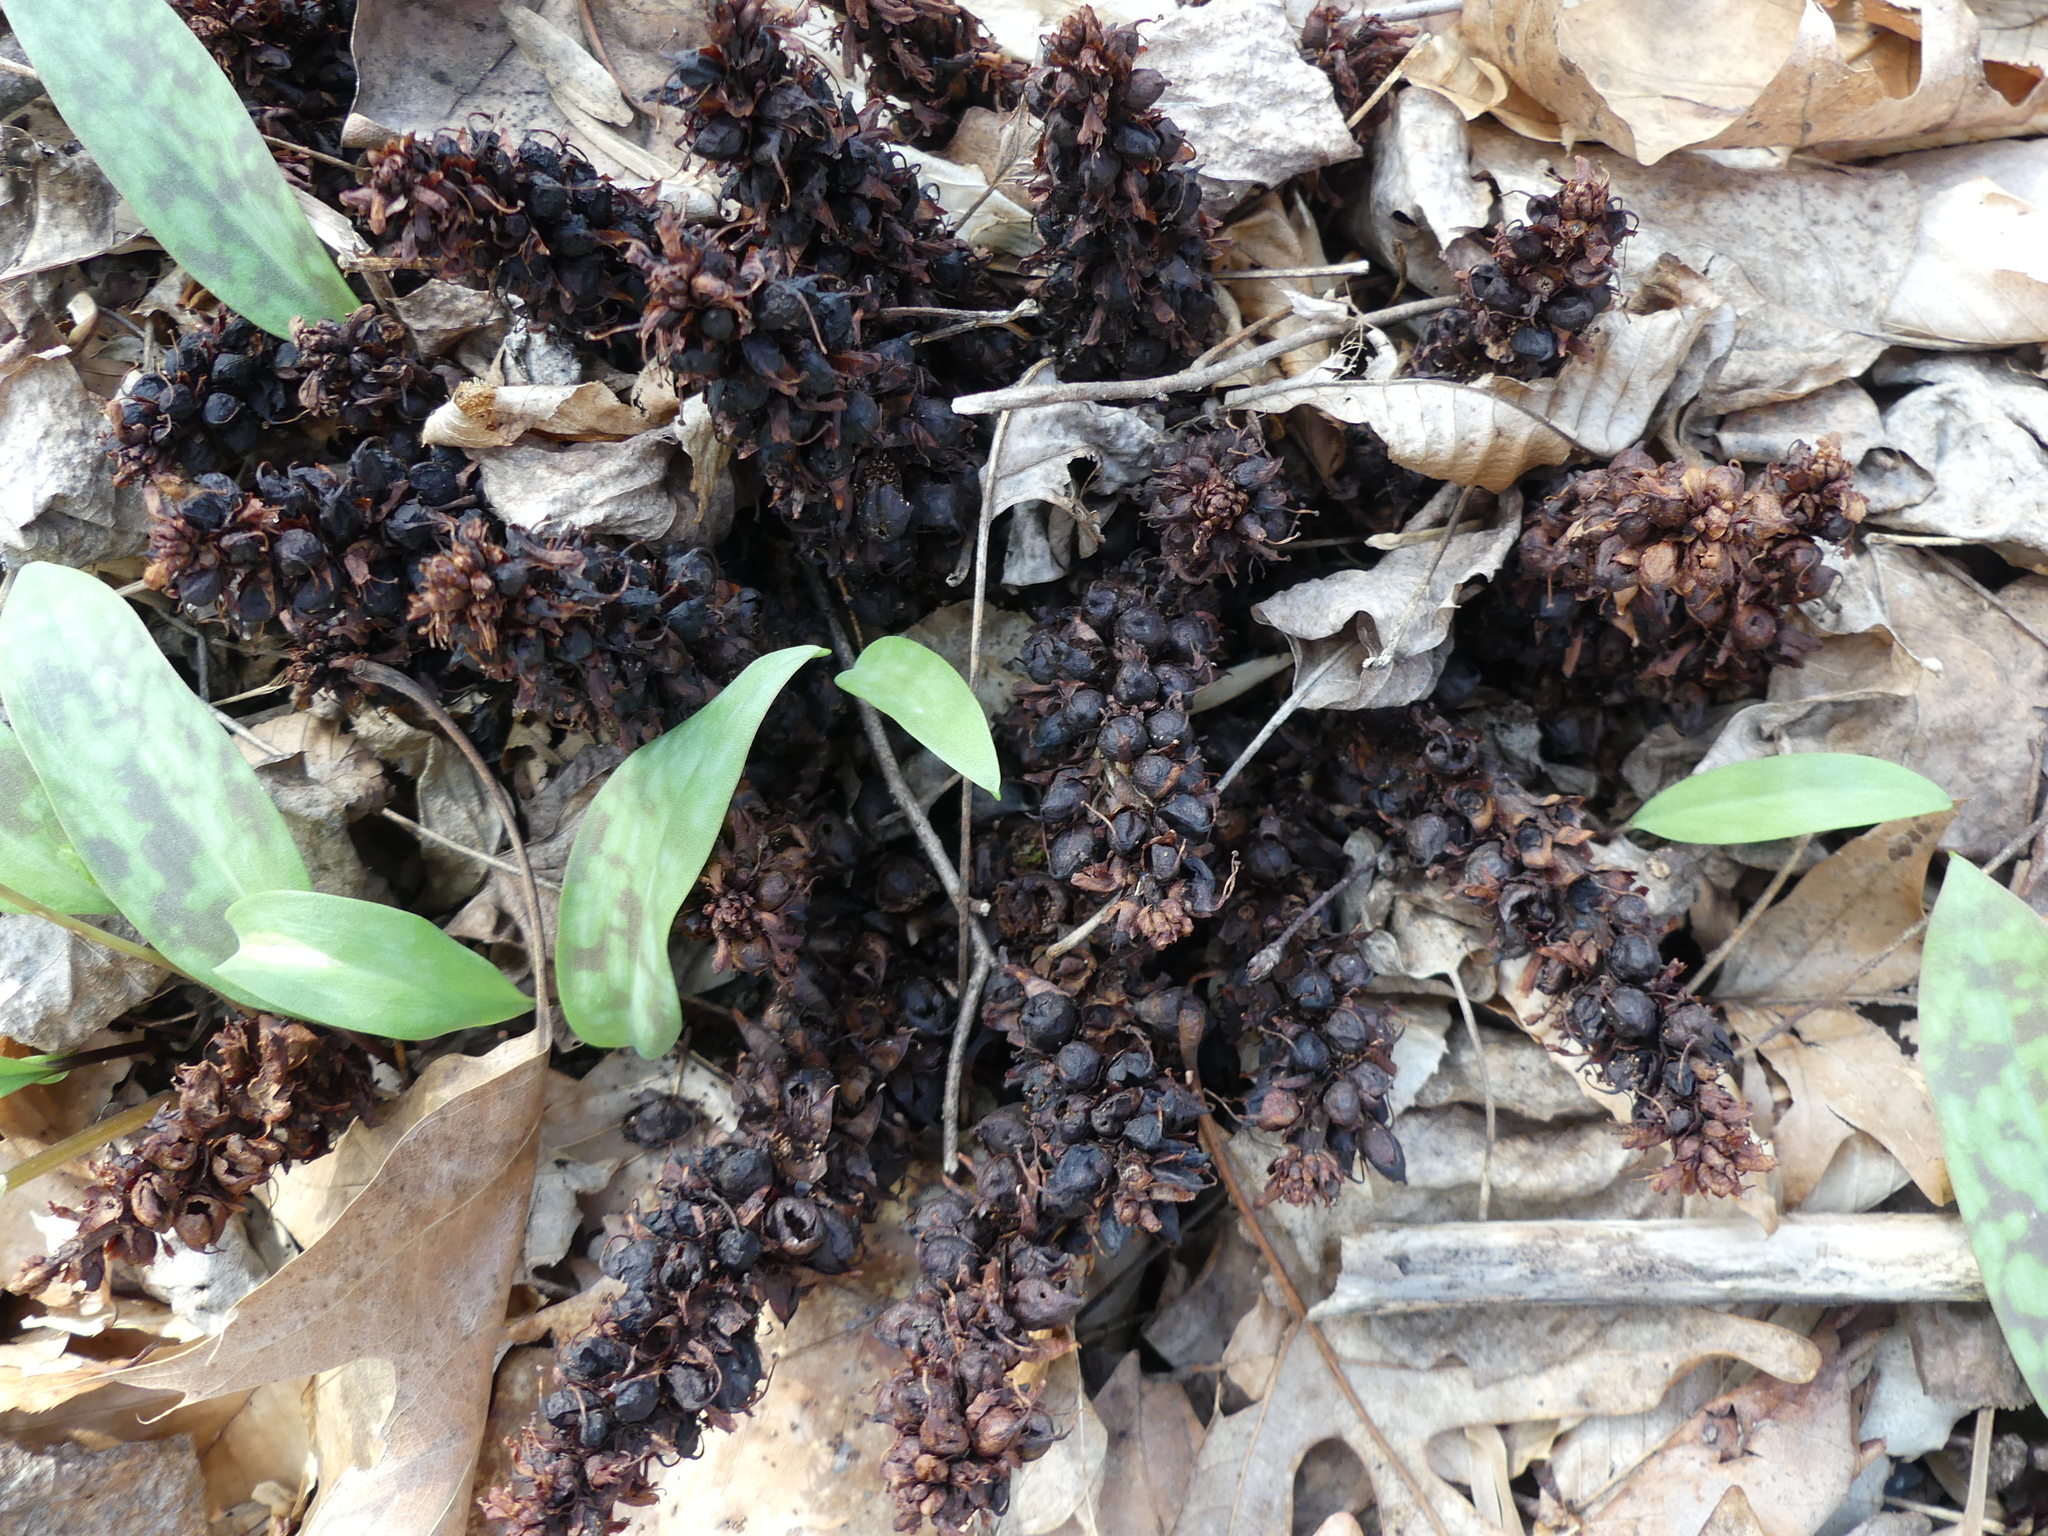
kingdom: Plantae
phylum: Tracheophyta
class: Magnoliopsida
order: Lamiales
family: Orobanchaceae
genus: Conopholis
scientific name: Conopholis americana
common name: American cancer-root
